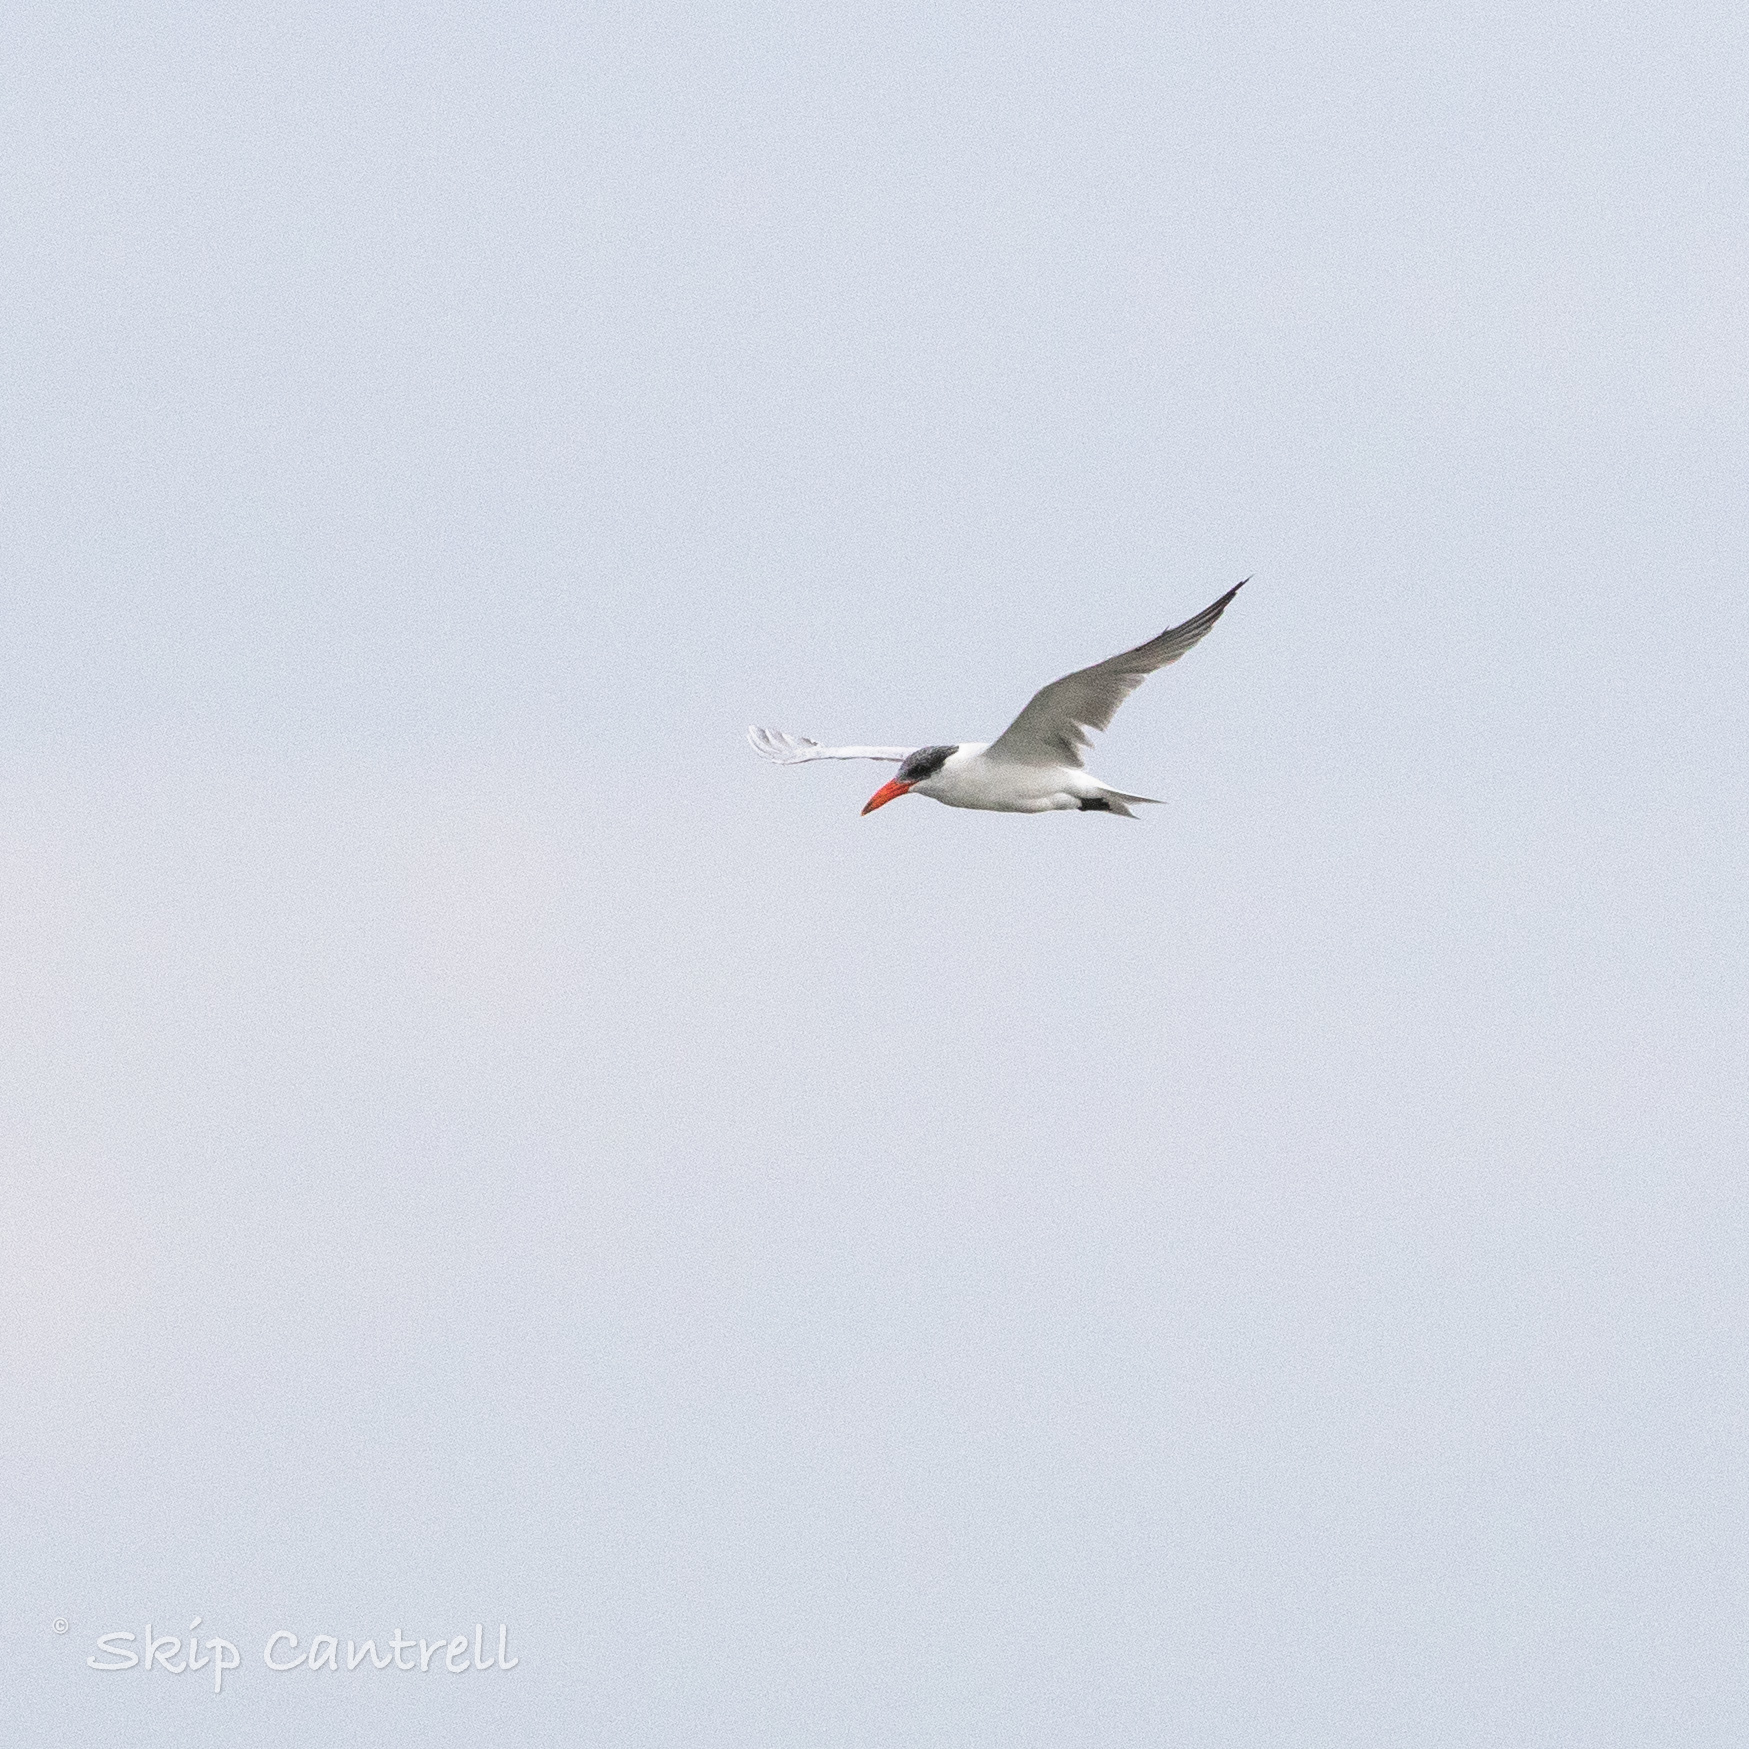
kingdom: Animalia
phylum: Chordata
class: Aves
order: Charadriiformes
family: Laridae
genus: Hydroprogne
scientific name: Hydroprogne caspia
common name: Caspian tern
